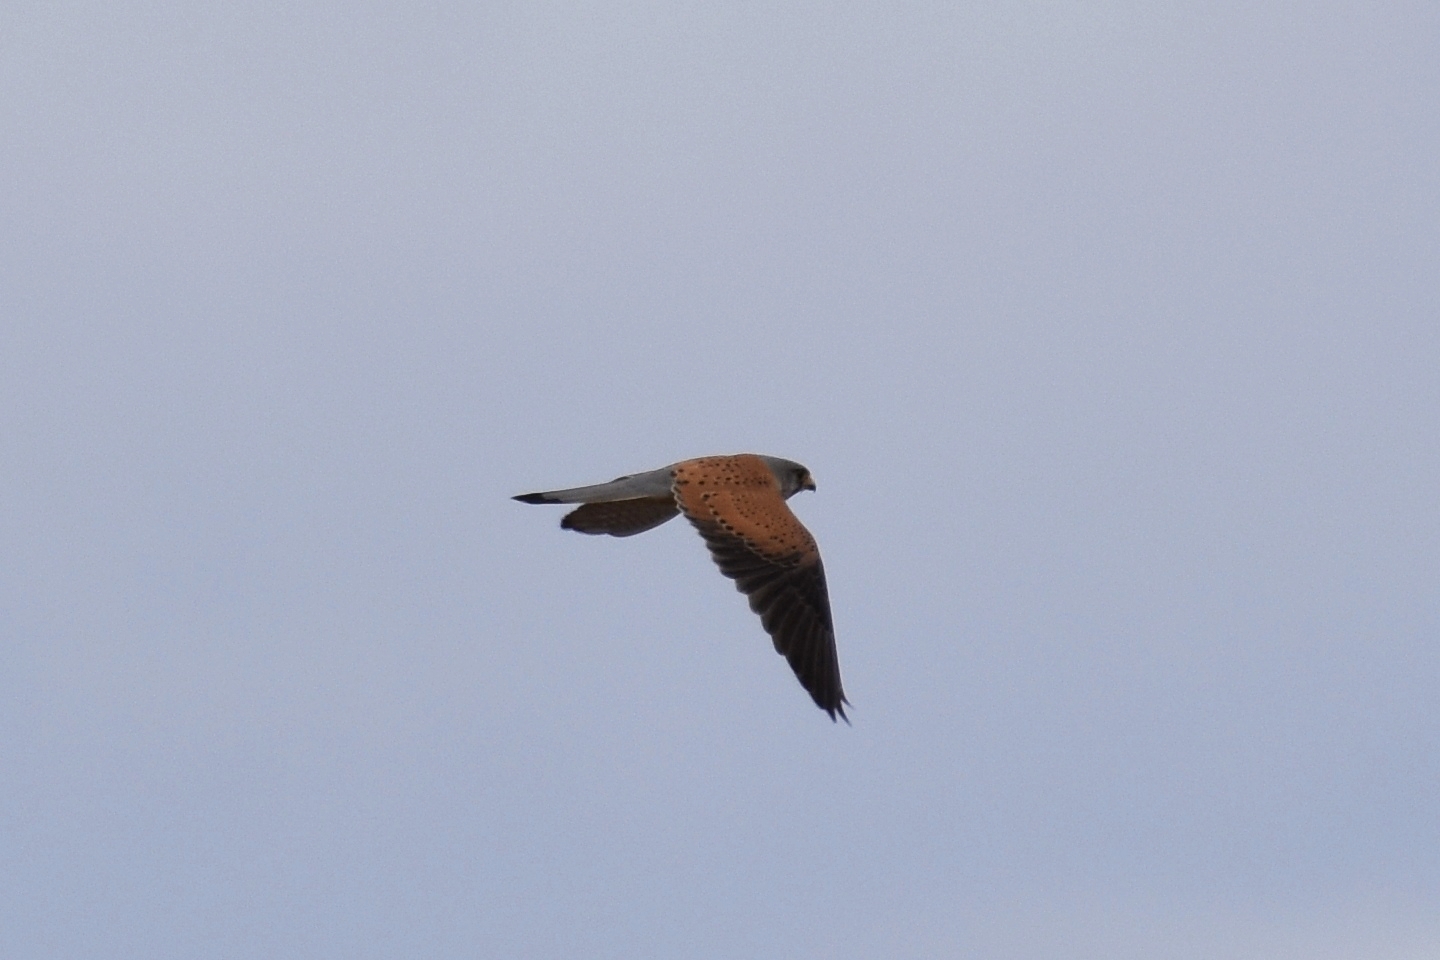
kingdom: Animalia
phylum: Chordata
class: Aves
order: Falconiformes
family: Falconidae
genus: Falco
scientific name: Falco tinnunculus
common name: Common kestrel
